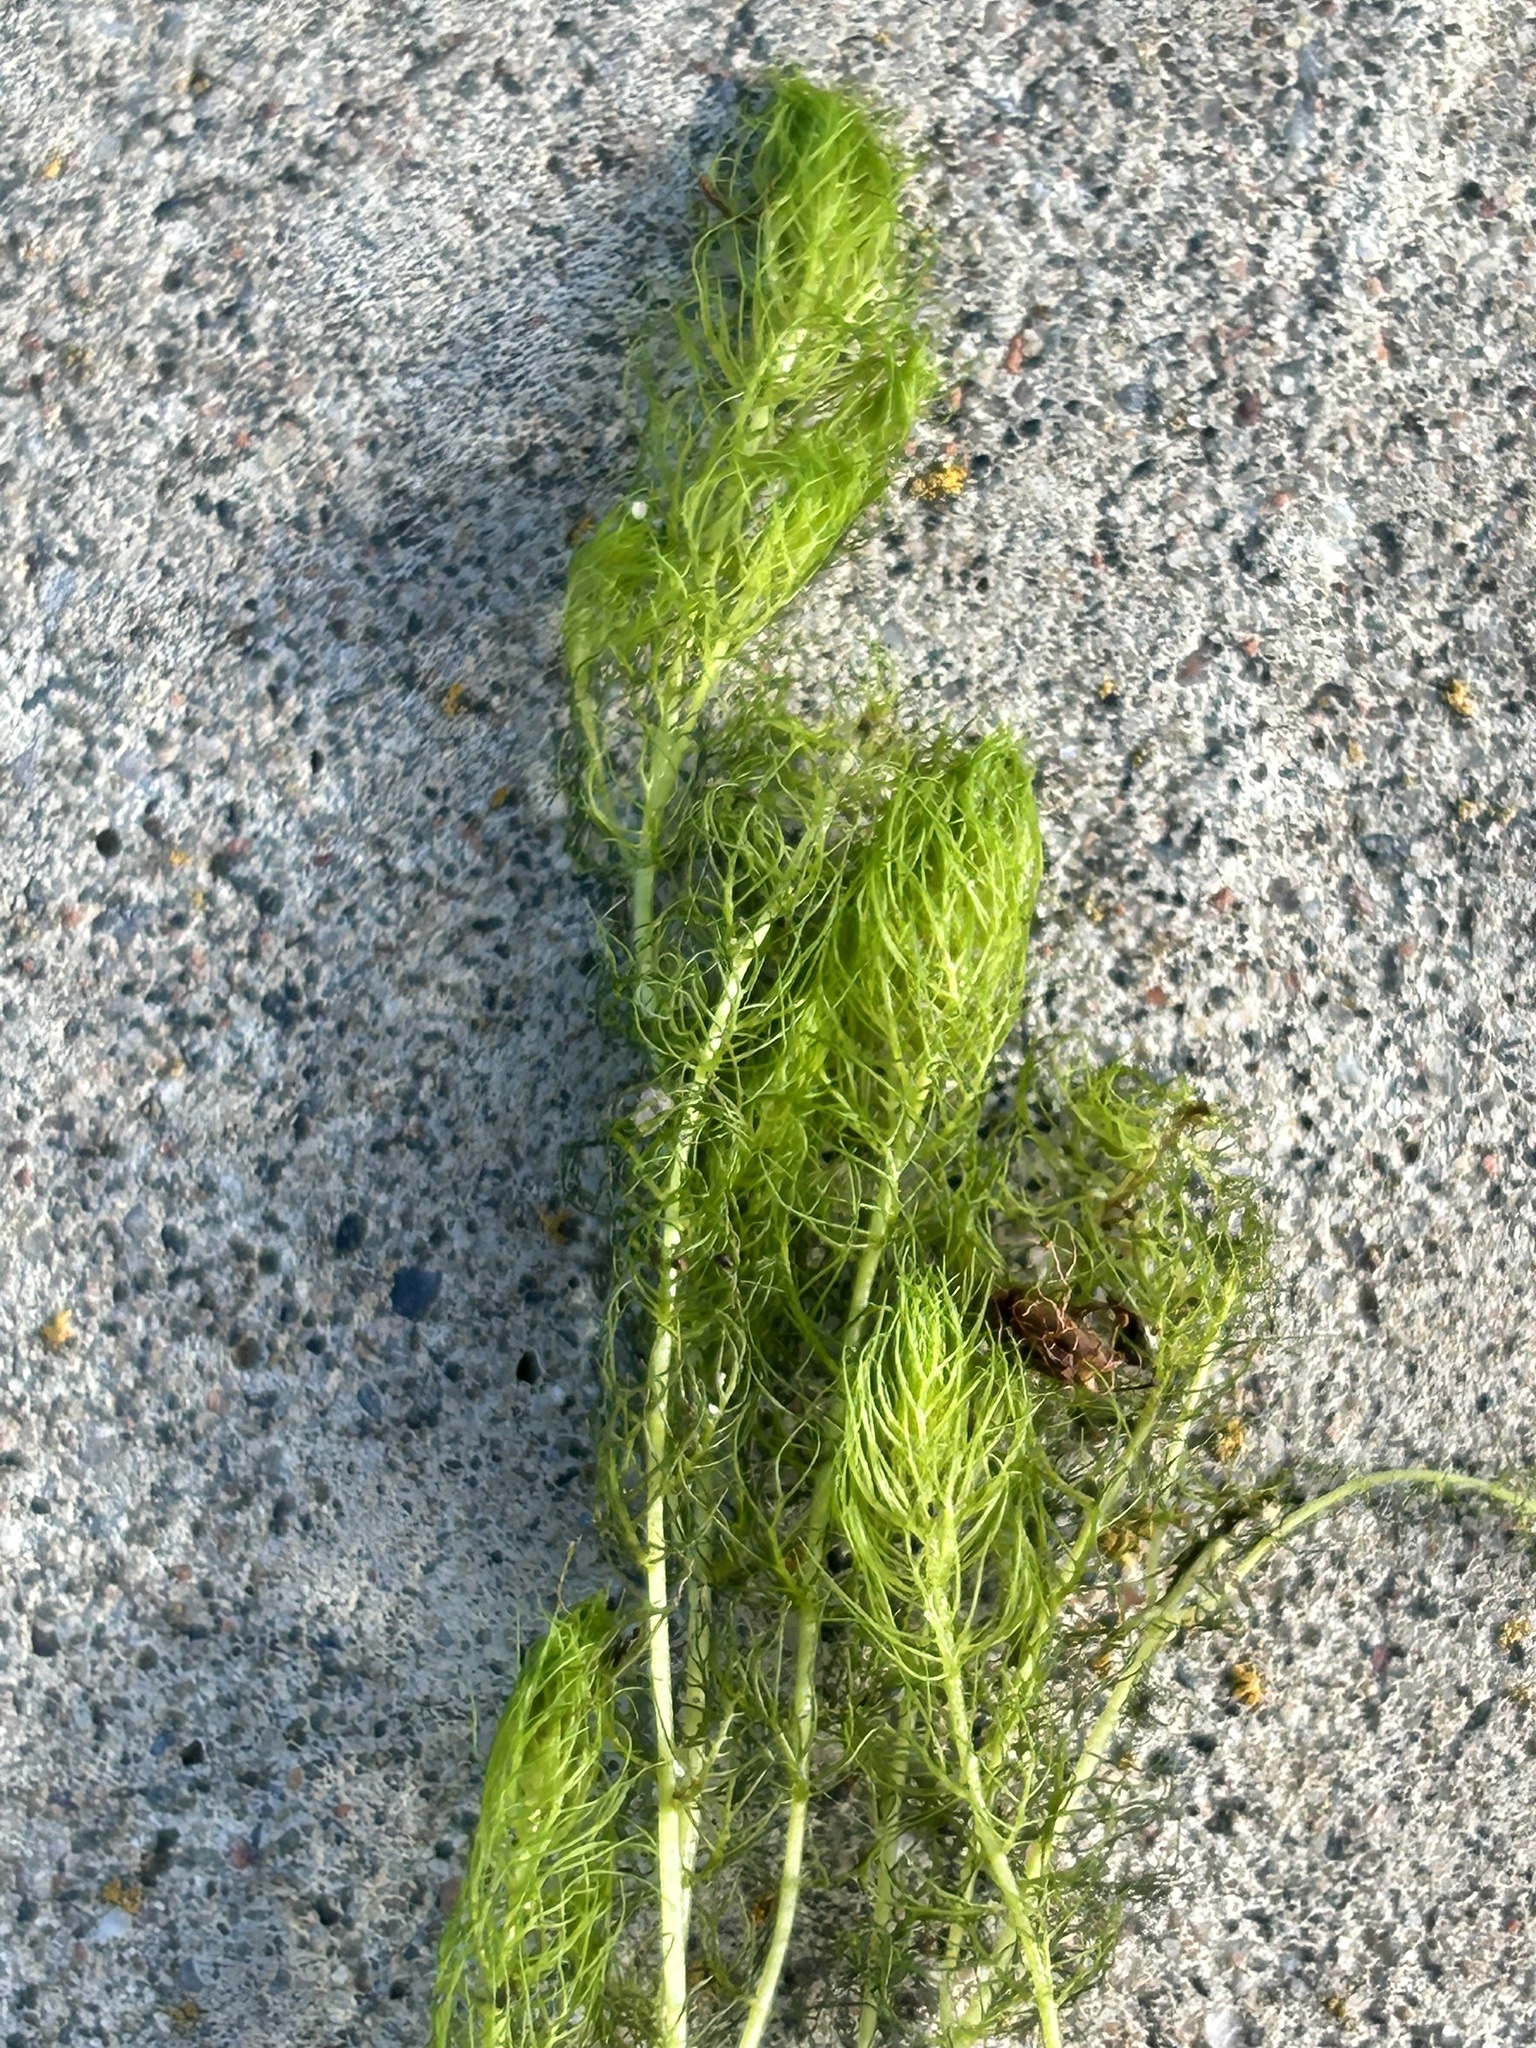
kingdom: Plantae
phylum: Tracheophyta
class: Magnoliopsida
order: Saxifragales
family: Haloragaceae
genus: Myriophyllum
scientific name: Myriophyllum sibiricum
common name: Siberian water-milfoil
